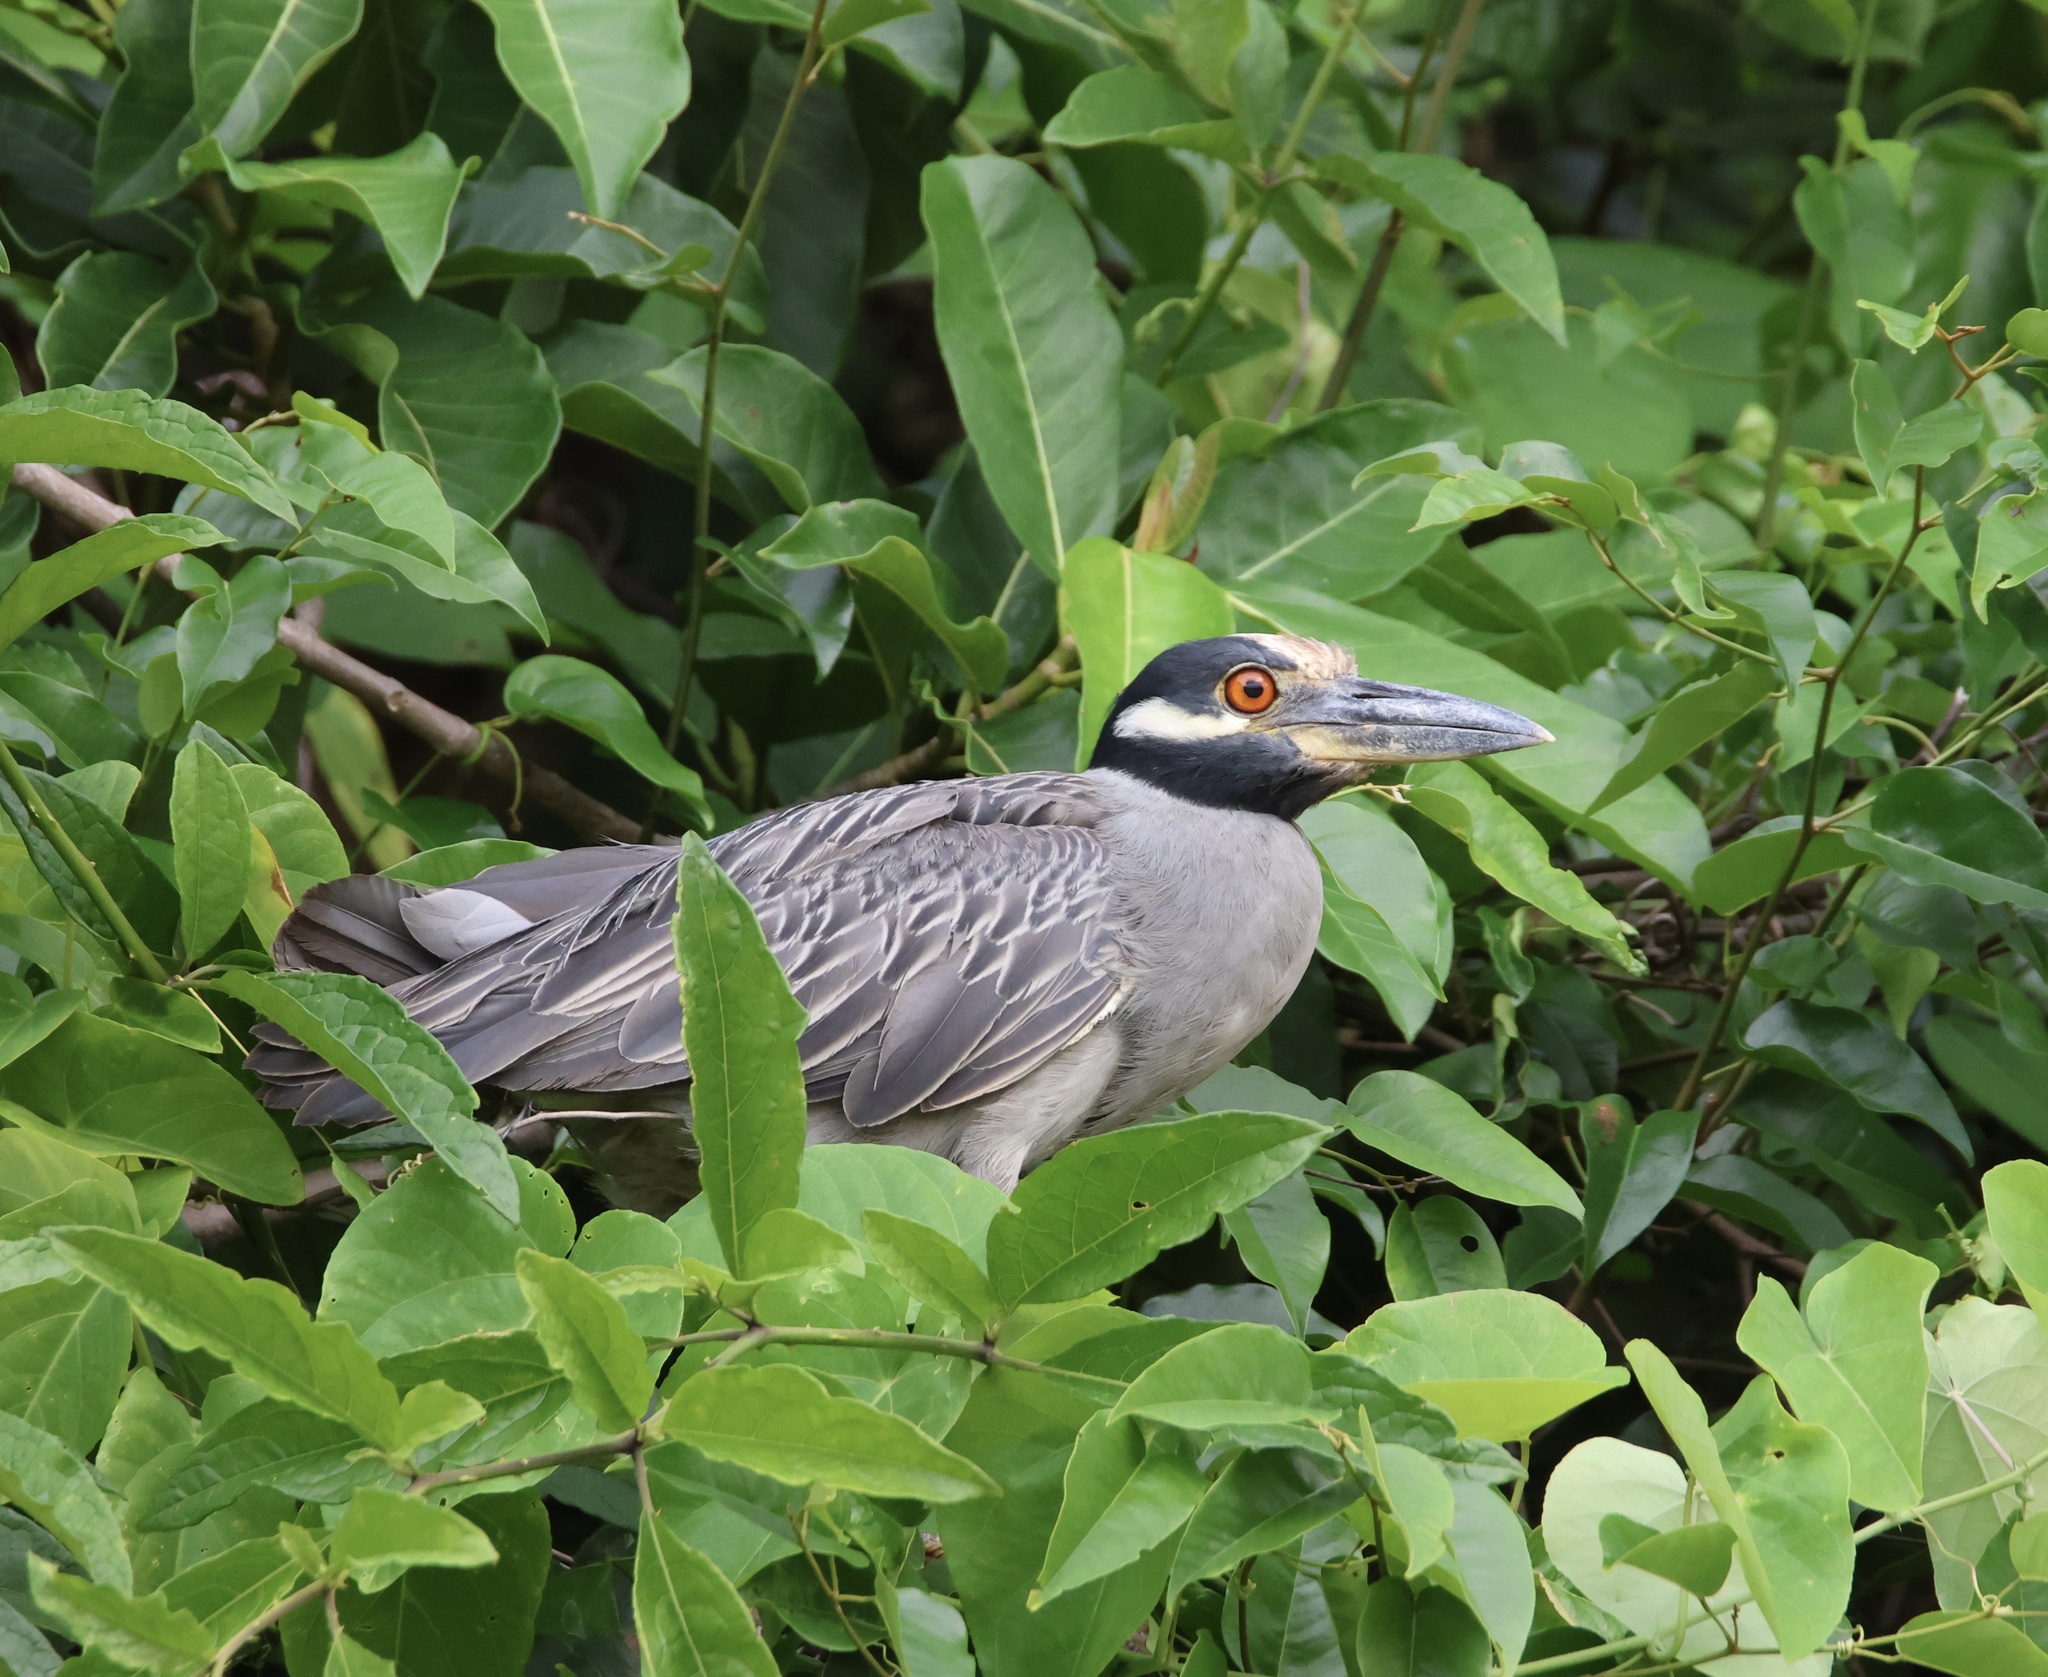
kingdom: Animalia
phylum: Chordata
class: Aves
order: Pelecaniformes
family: Ardeidae
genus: Nyctanassa
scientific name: Nyctanassa violacea
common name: Yellow-crowned night heron
